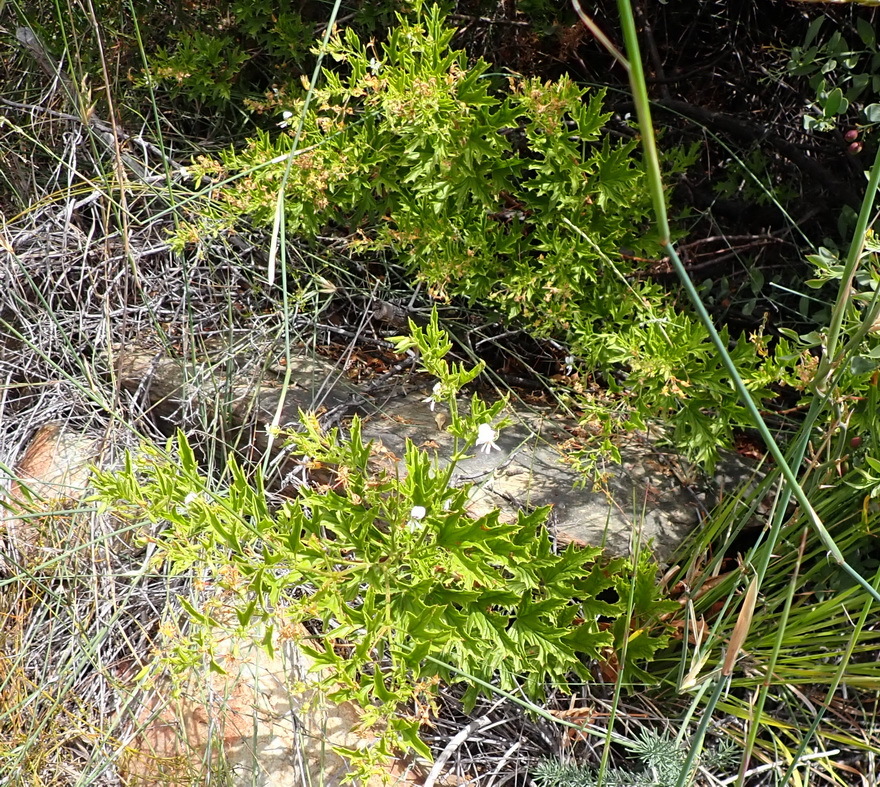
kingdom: Plantae
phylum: Tracheophyta
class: Magnoliopsida
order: Geraniales
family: Geraniaceae
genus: Pelargonium
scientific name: Pelargonium ribifolium
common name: Currant-leaf pelargonium
